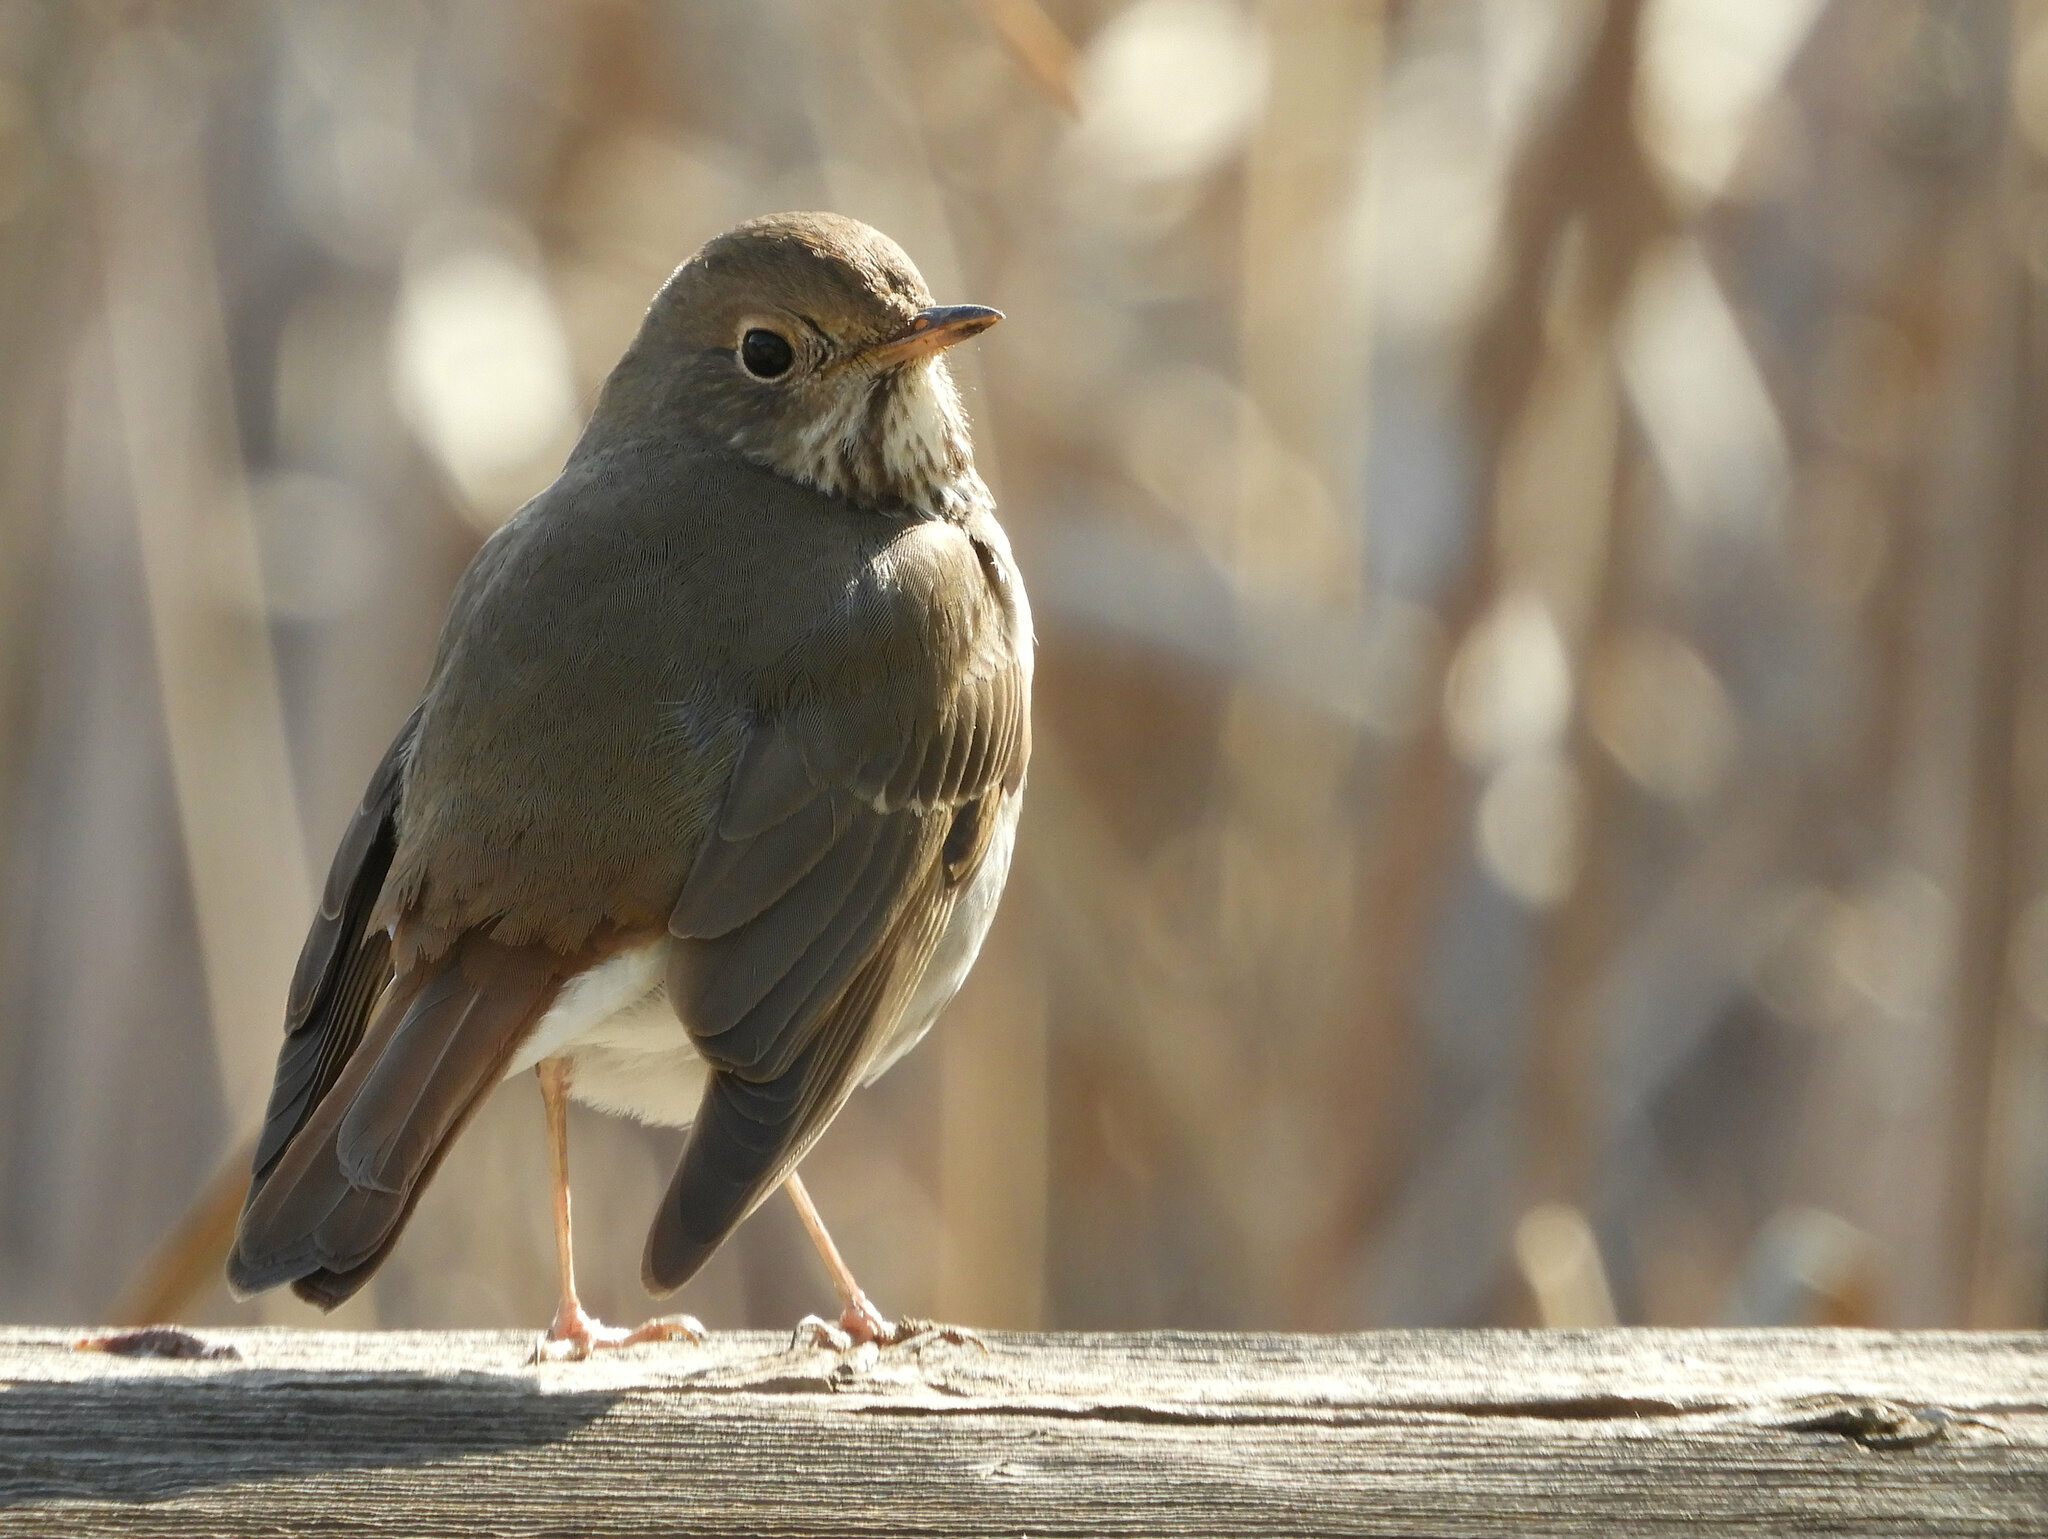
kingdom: Animalia
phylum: Chordata
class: Aves
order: Passeriformes
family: Turdidae
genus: Catharus
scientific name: Catharus guttatus
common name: Hermit thrush
